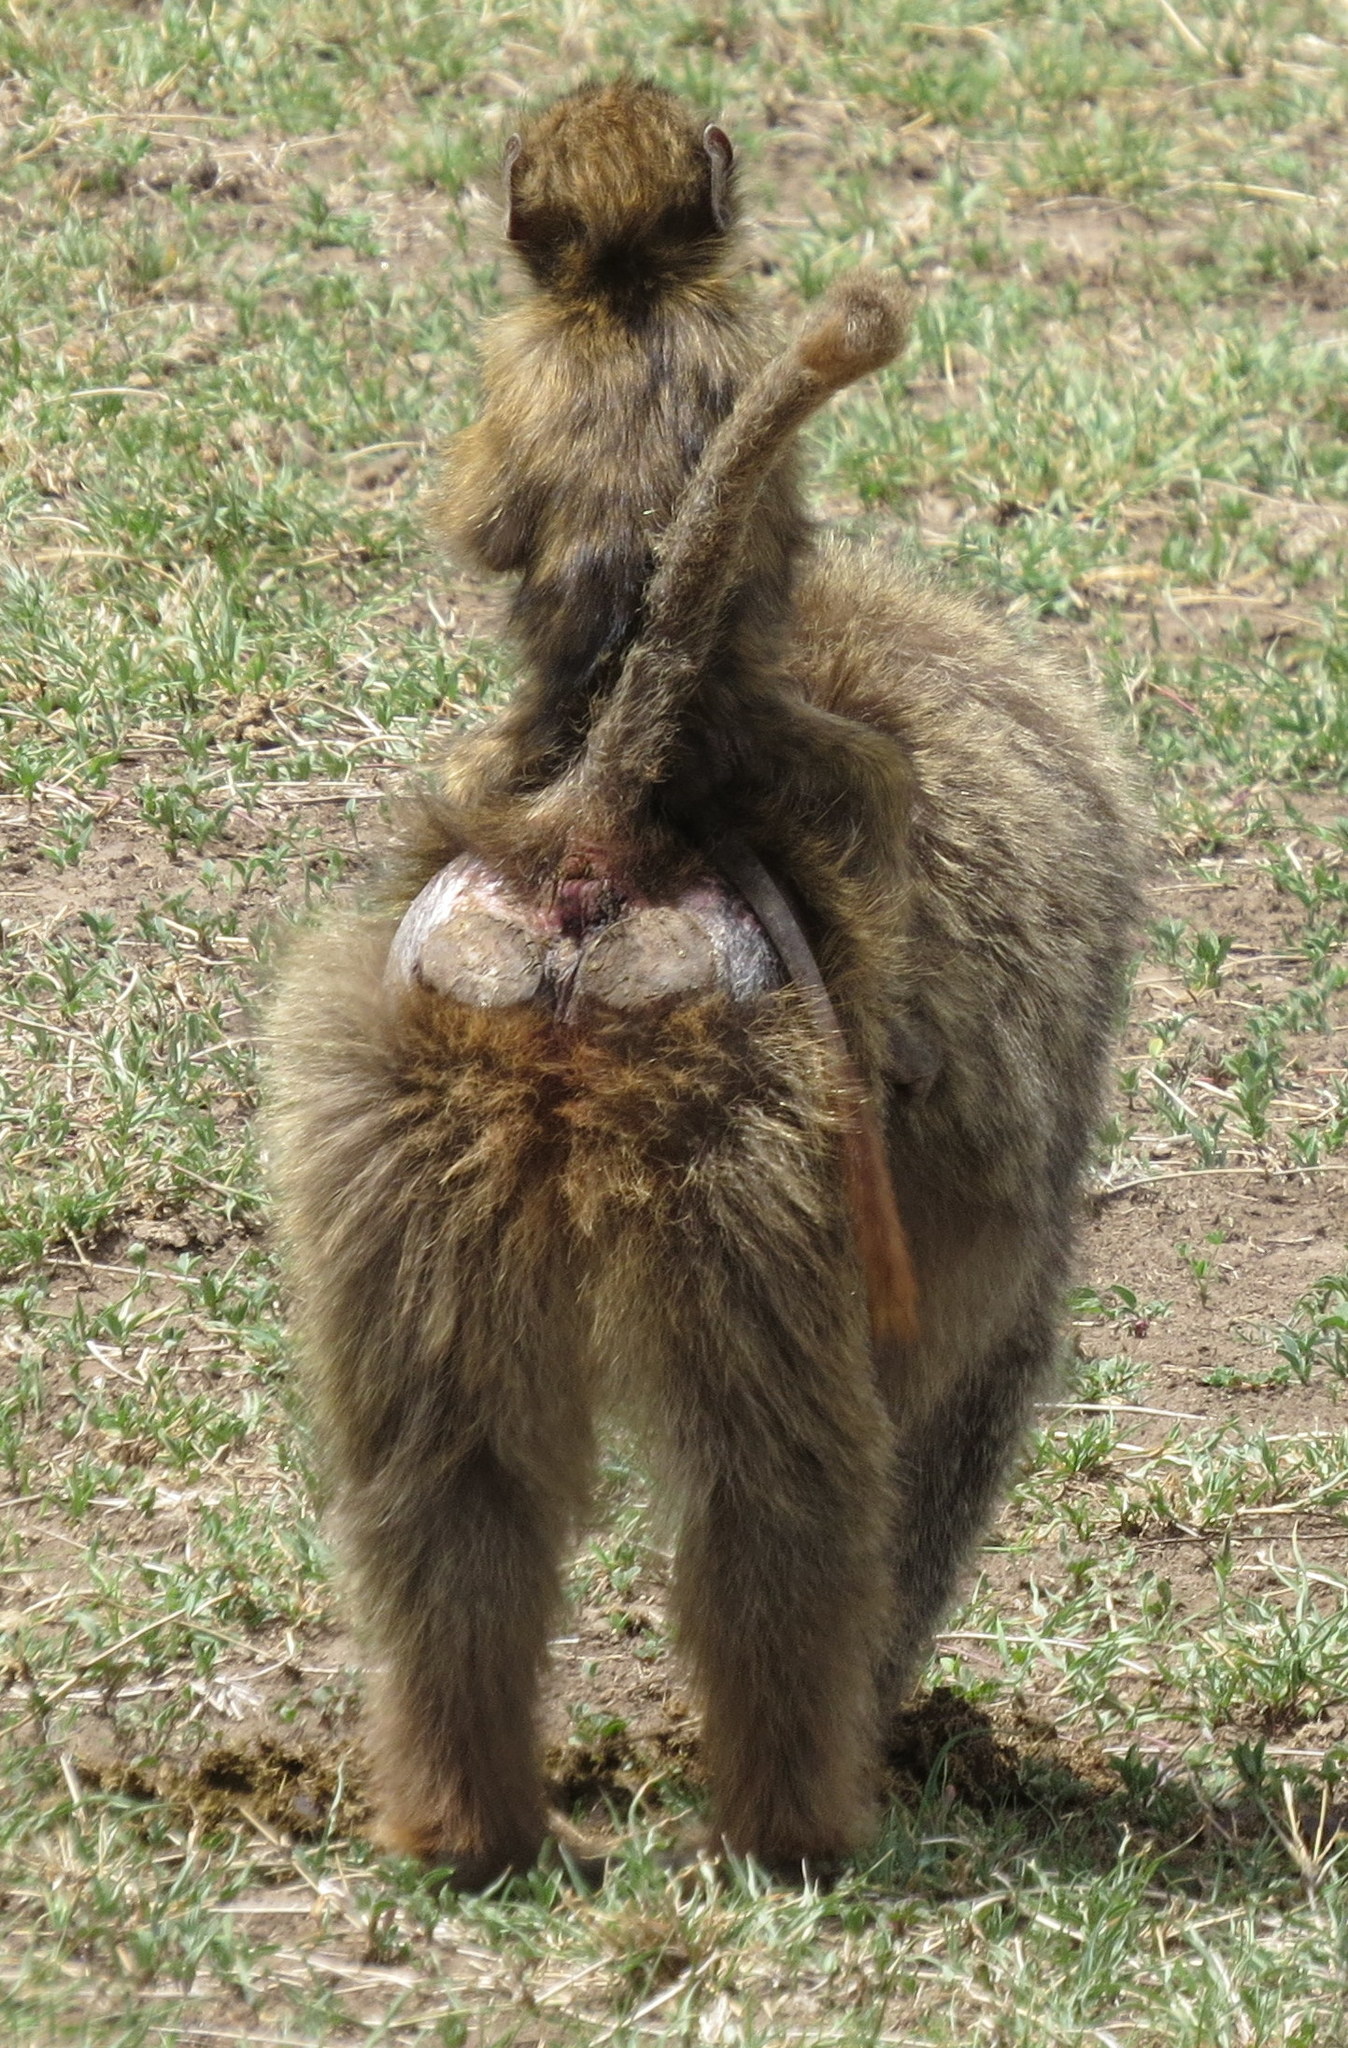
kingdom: Animalia
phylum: Chordata
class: Mammalia
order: Primates
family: Cercopithecidae
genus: Papio
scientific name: Papio anubis
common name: Olive baboon
